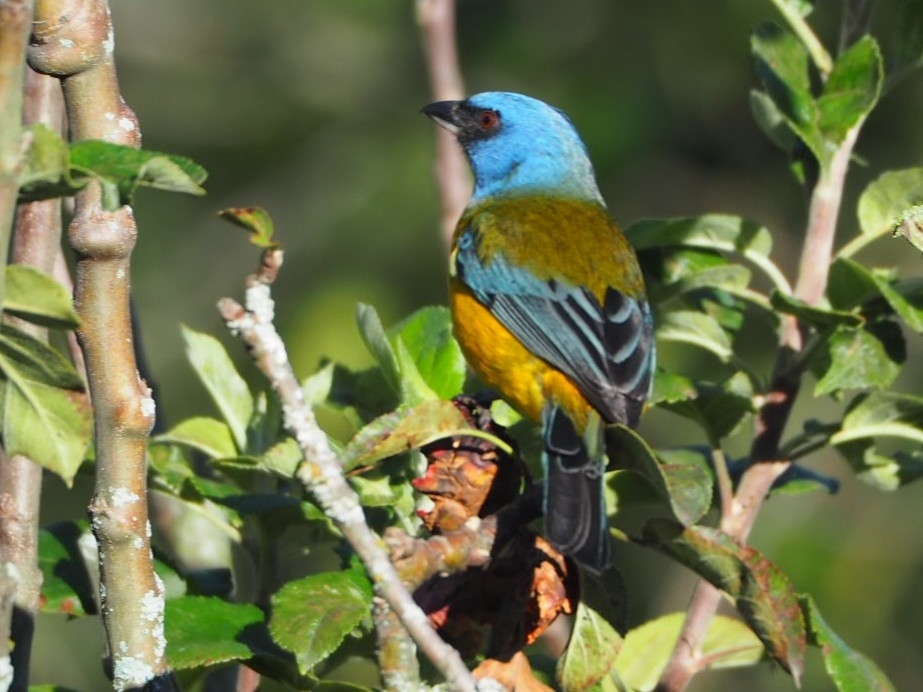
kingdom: Animalia
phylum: Chordata
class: Aves
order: Passeriformes
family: Thraupidae
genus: Rauenia
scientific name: Rauenia bonariensis
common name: Blue-and-yellow tanager
